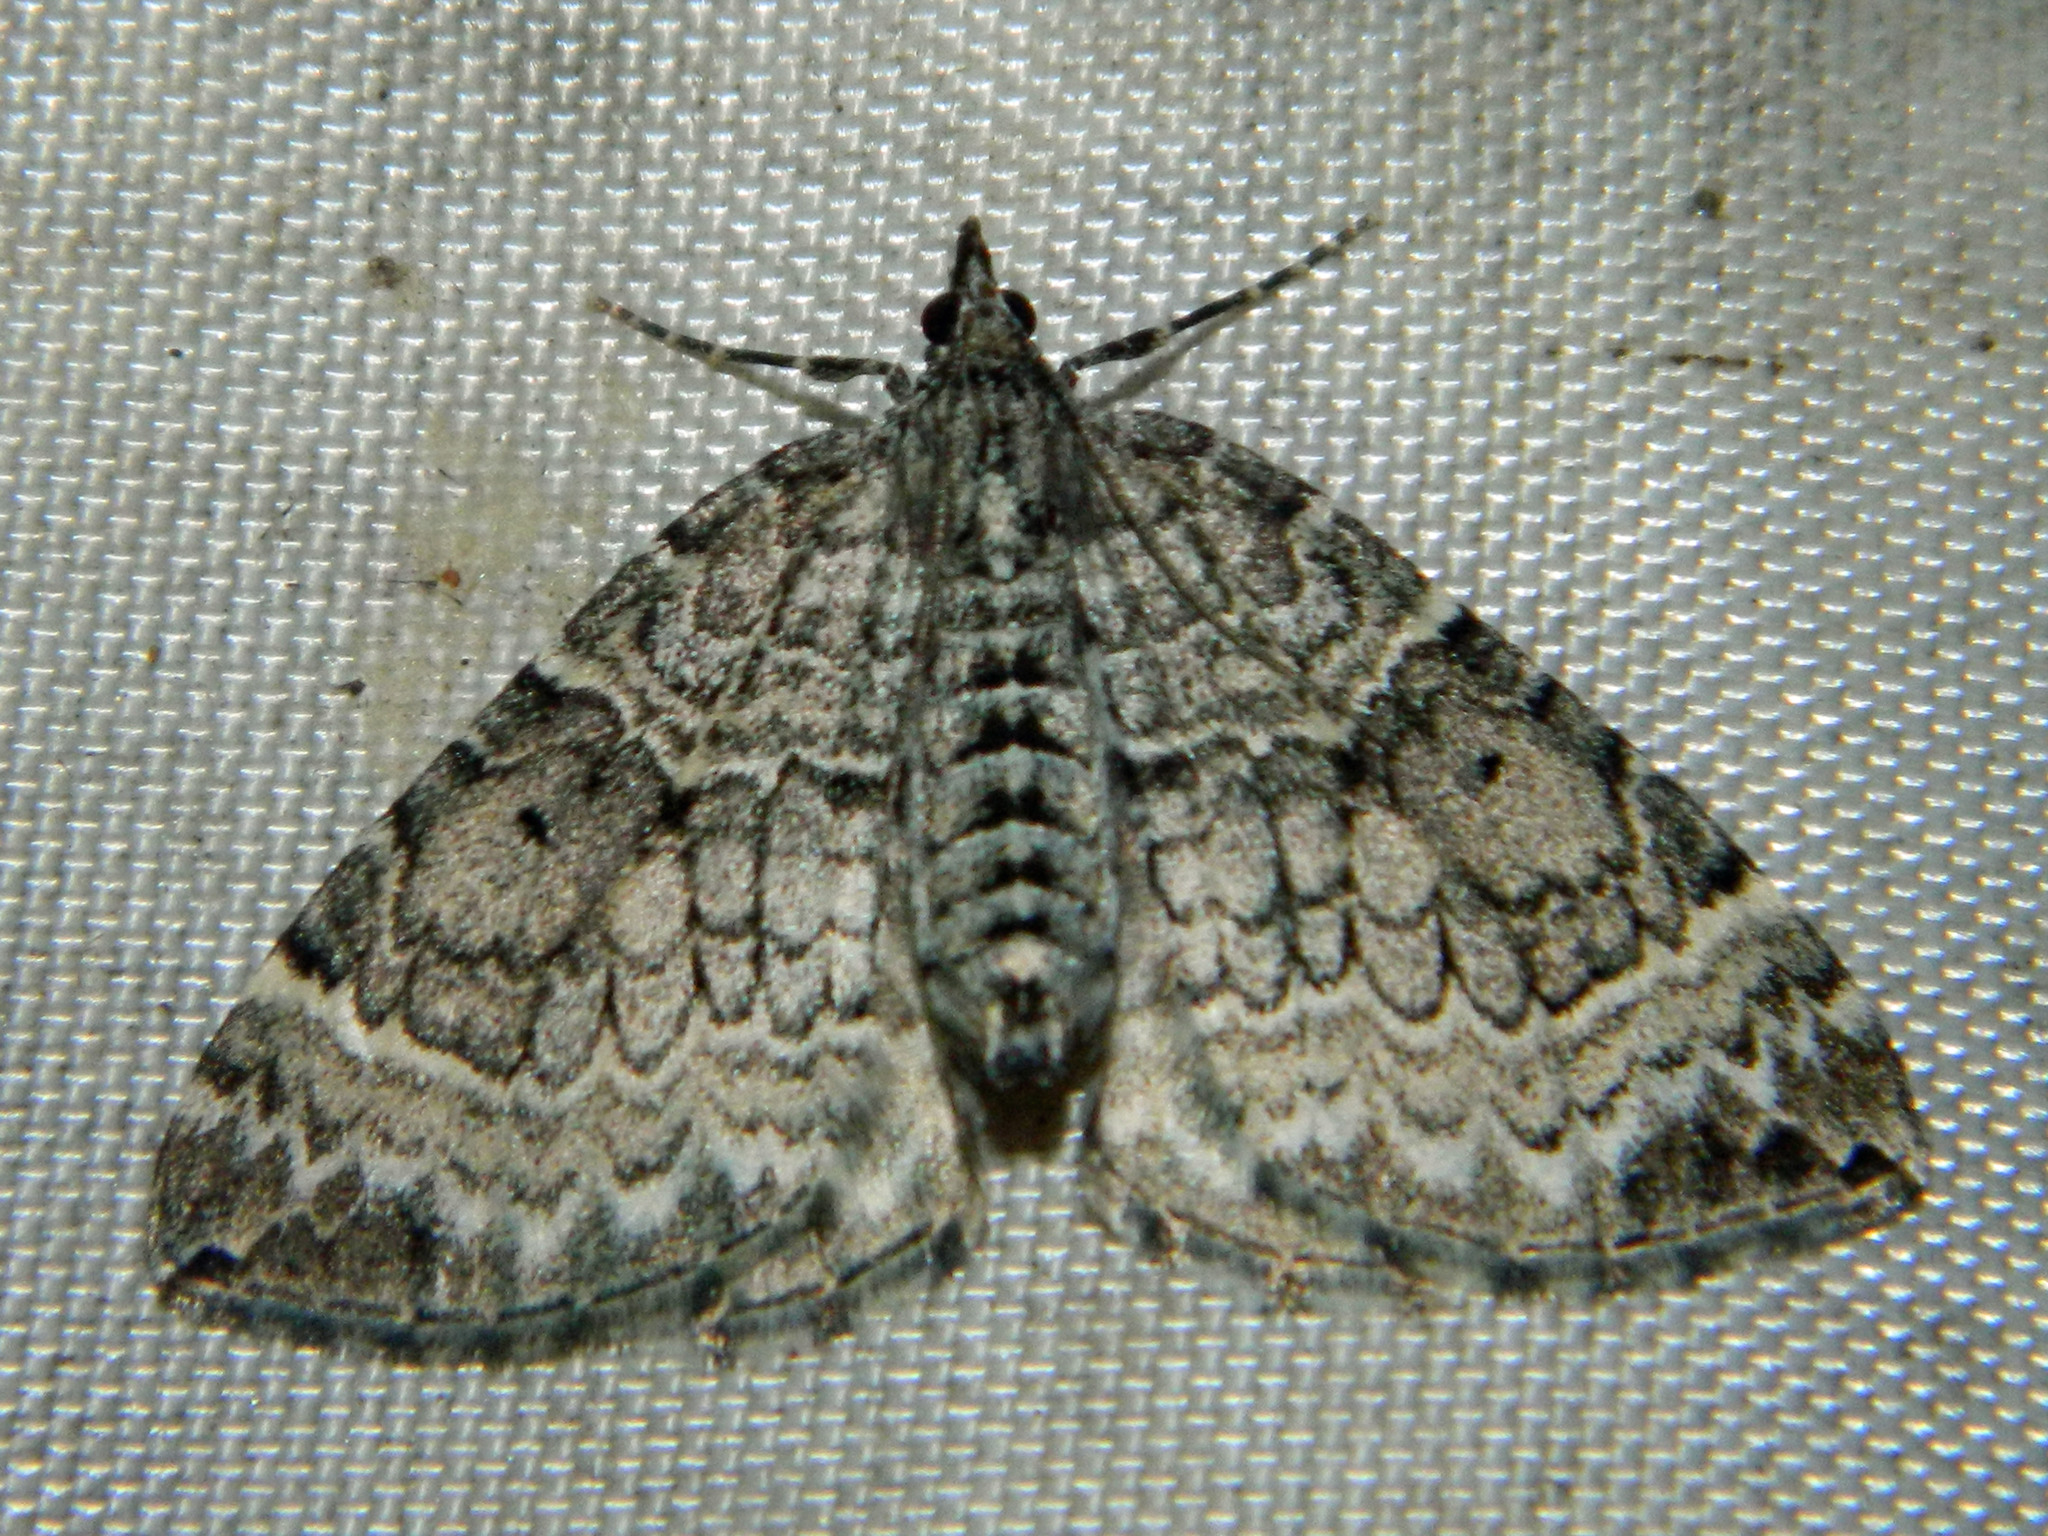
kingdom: Animalia
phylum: Arthropoda
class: Insecta
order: Lepidoptera
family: Geometridae
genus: Eulithis
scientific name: Eulithis explanata
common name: White eulithis
